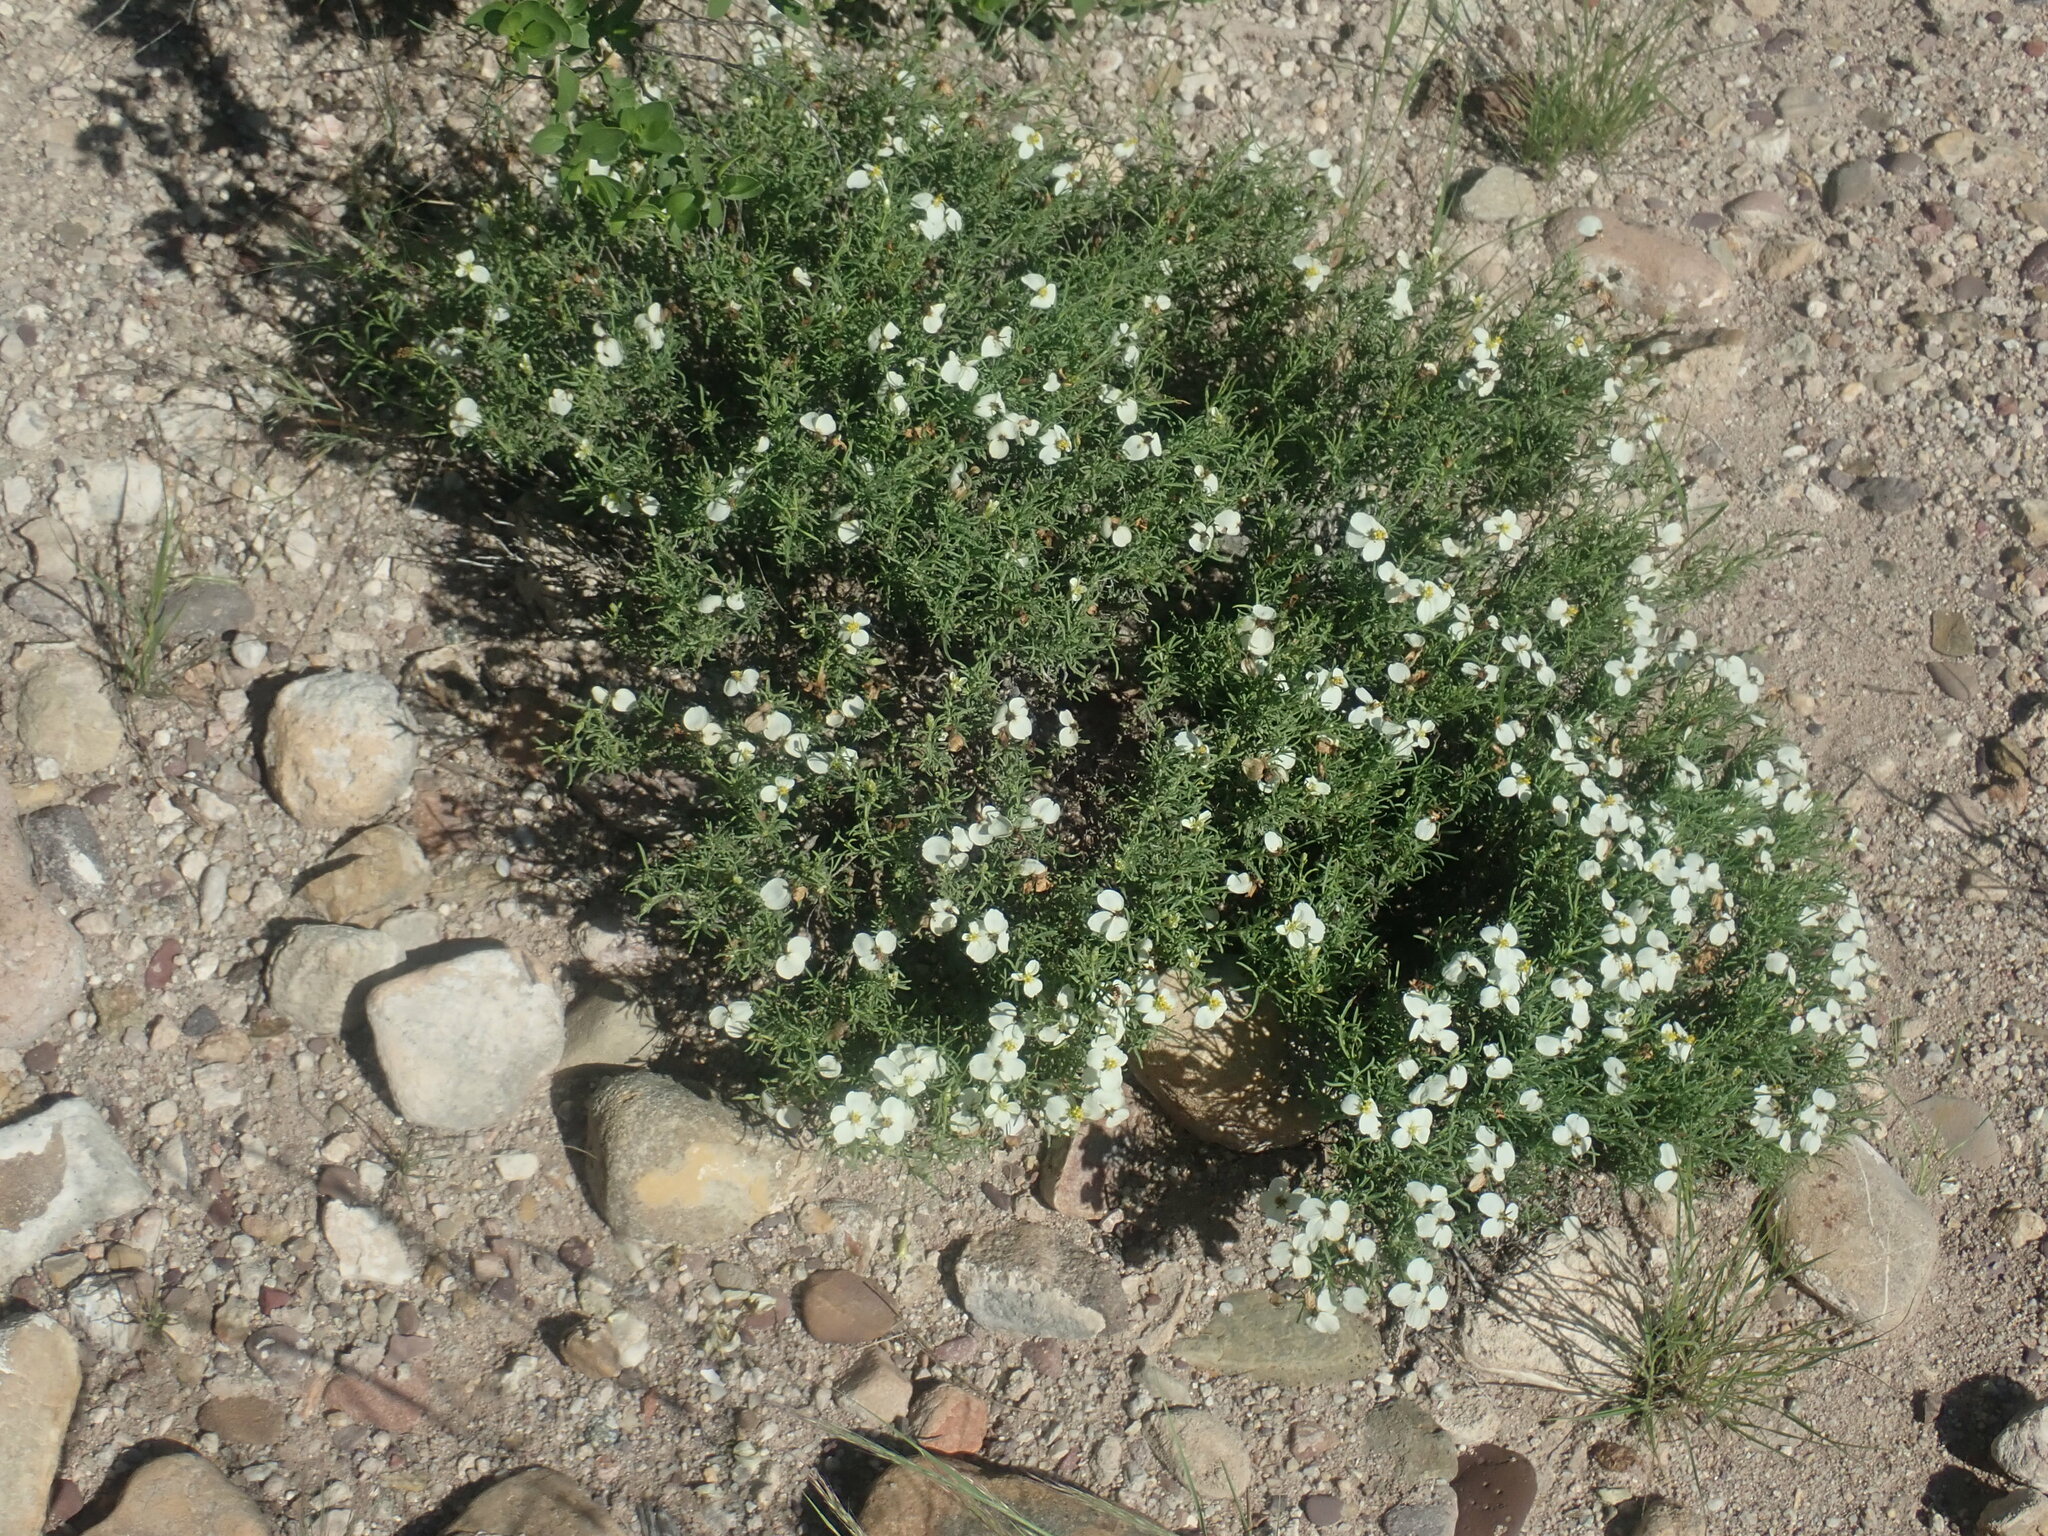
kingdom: Plantae
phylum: Tracheophyta
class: Magnoliopsida
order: Asterales
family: Asteraceae
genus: Zinnia
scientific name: Zinnia acerosa
